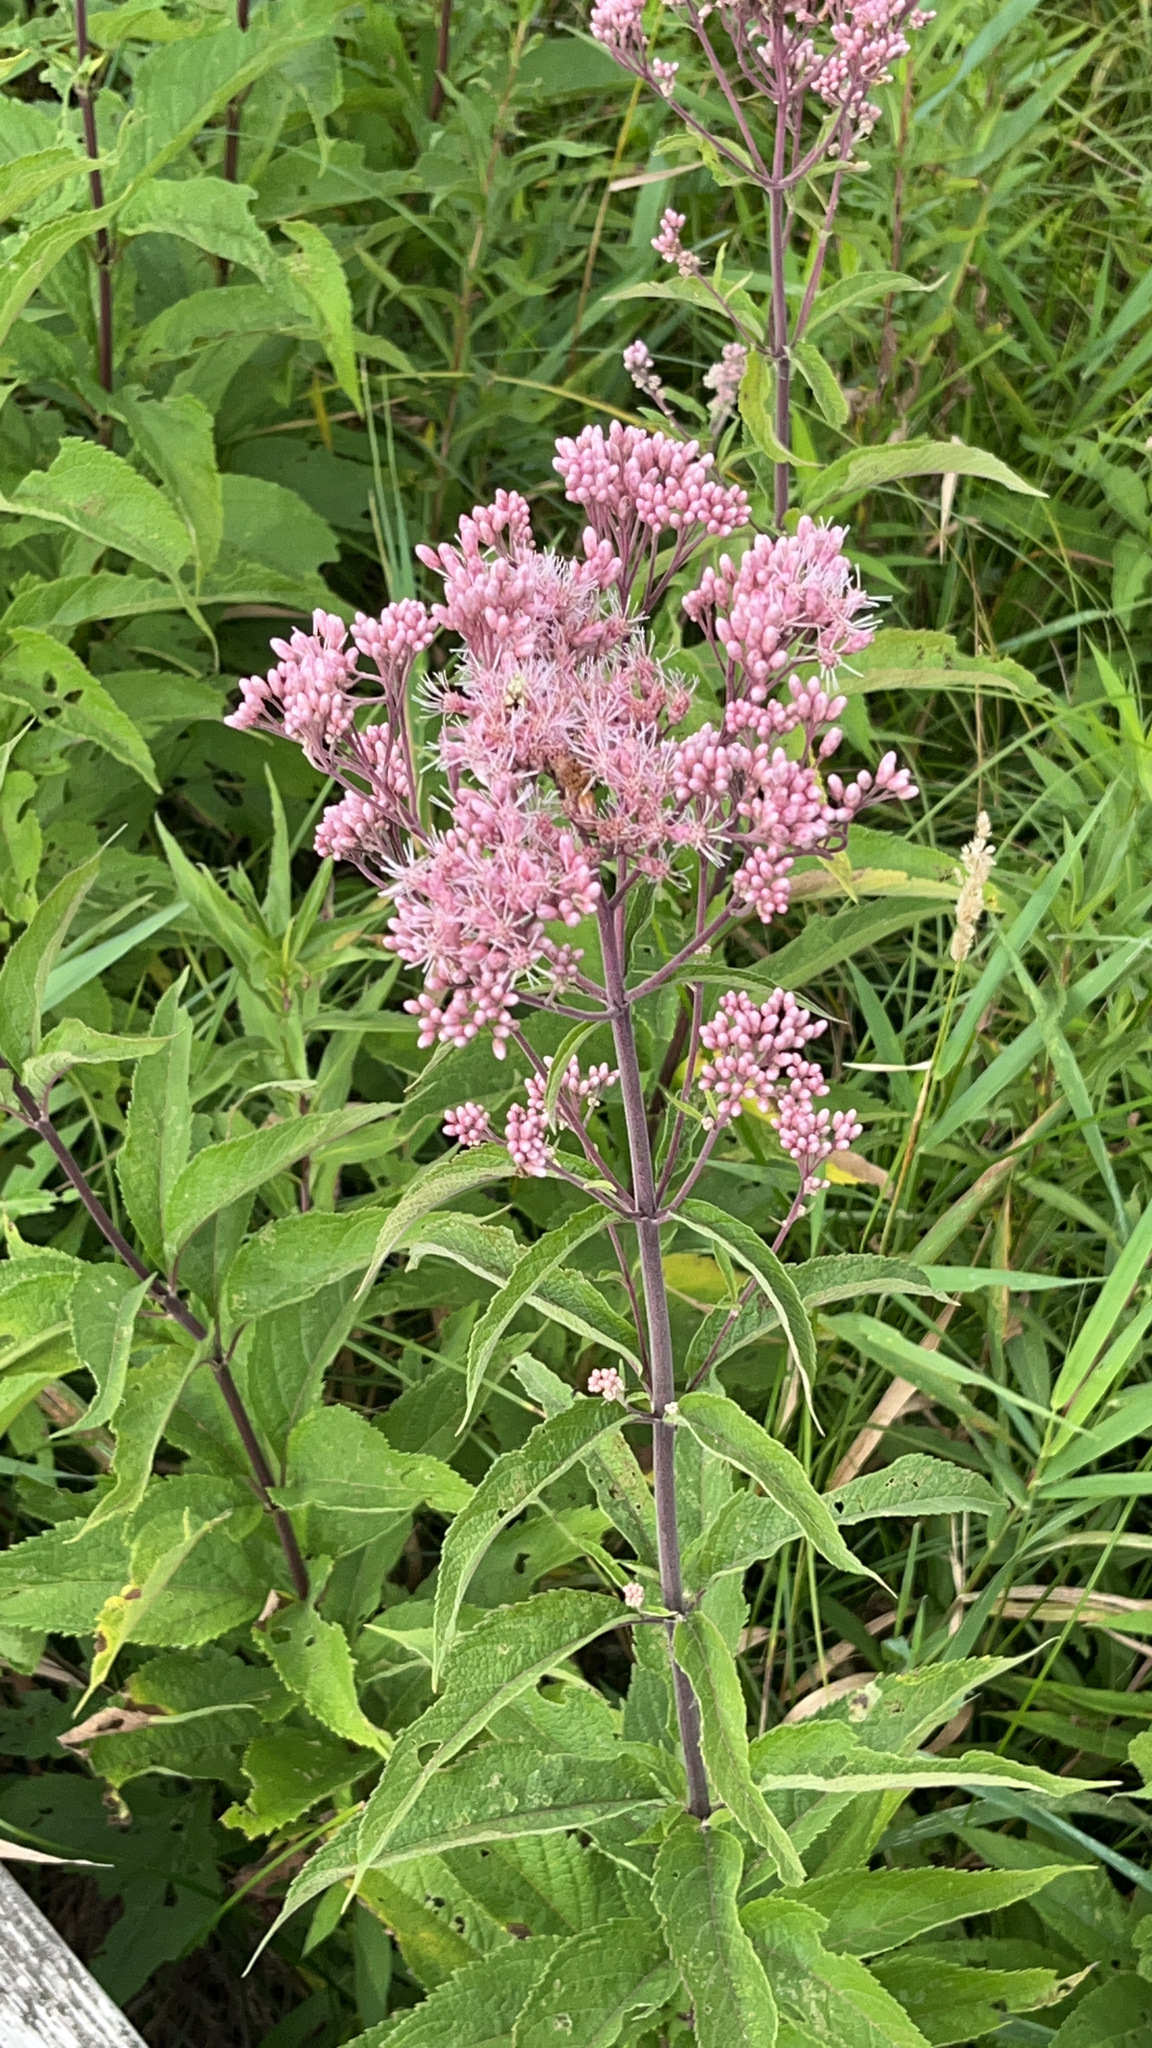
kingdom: Plantae
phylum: Tracheophyta
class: Magnoliopsida
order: Asterales
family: Asteraceae
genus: Eutrochium
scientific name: Eutrochium maculatum
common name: Spotted joe pye weed
